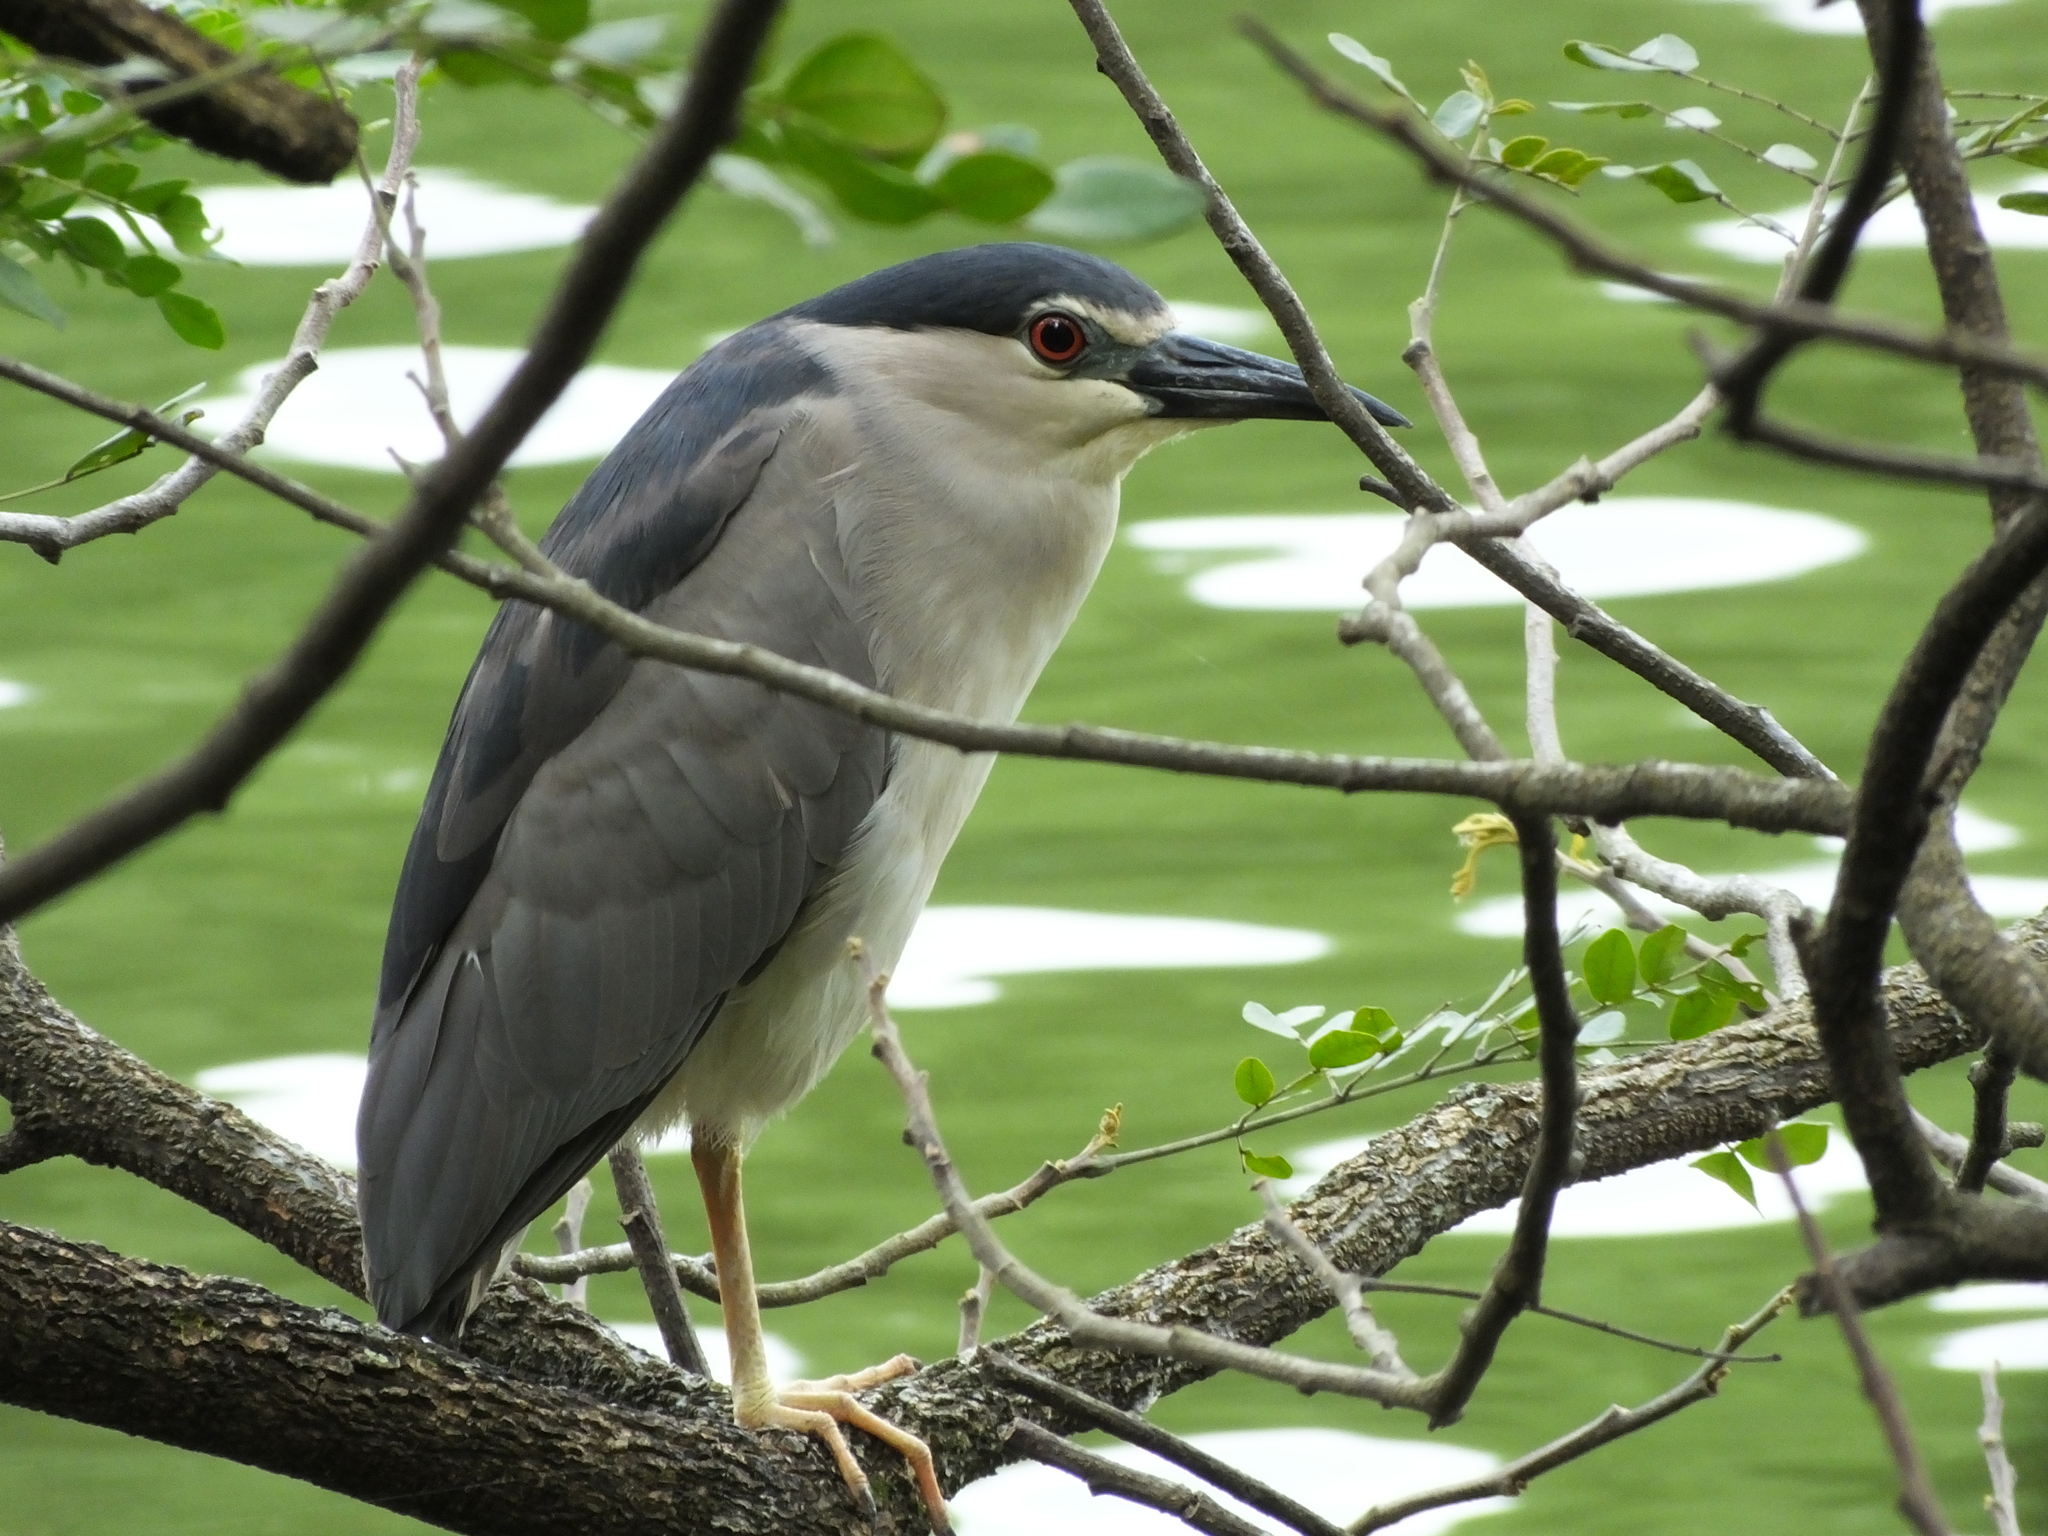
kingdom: Animalia
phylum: Chordata
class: Aves
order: Pelecaniformes
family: Ardeidae
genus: Nycticorax
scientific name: Nycticorax nycticorax
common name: Black-crowned night heron
